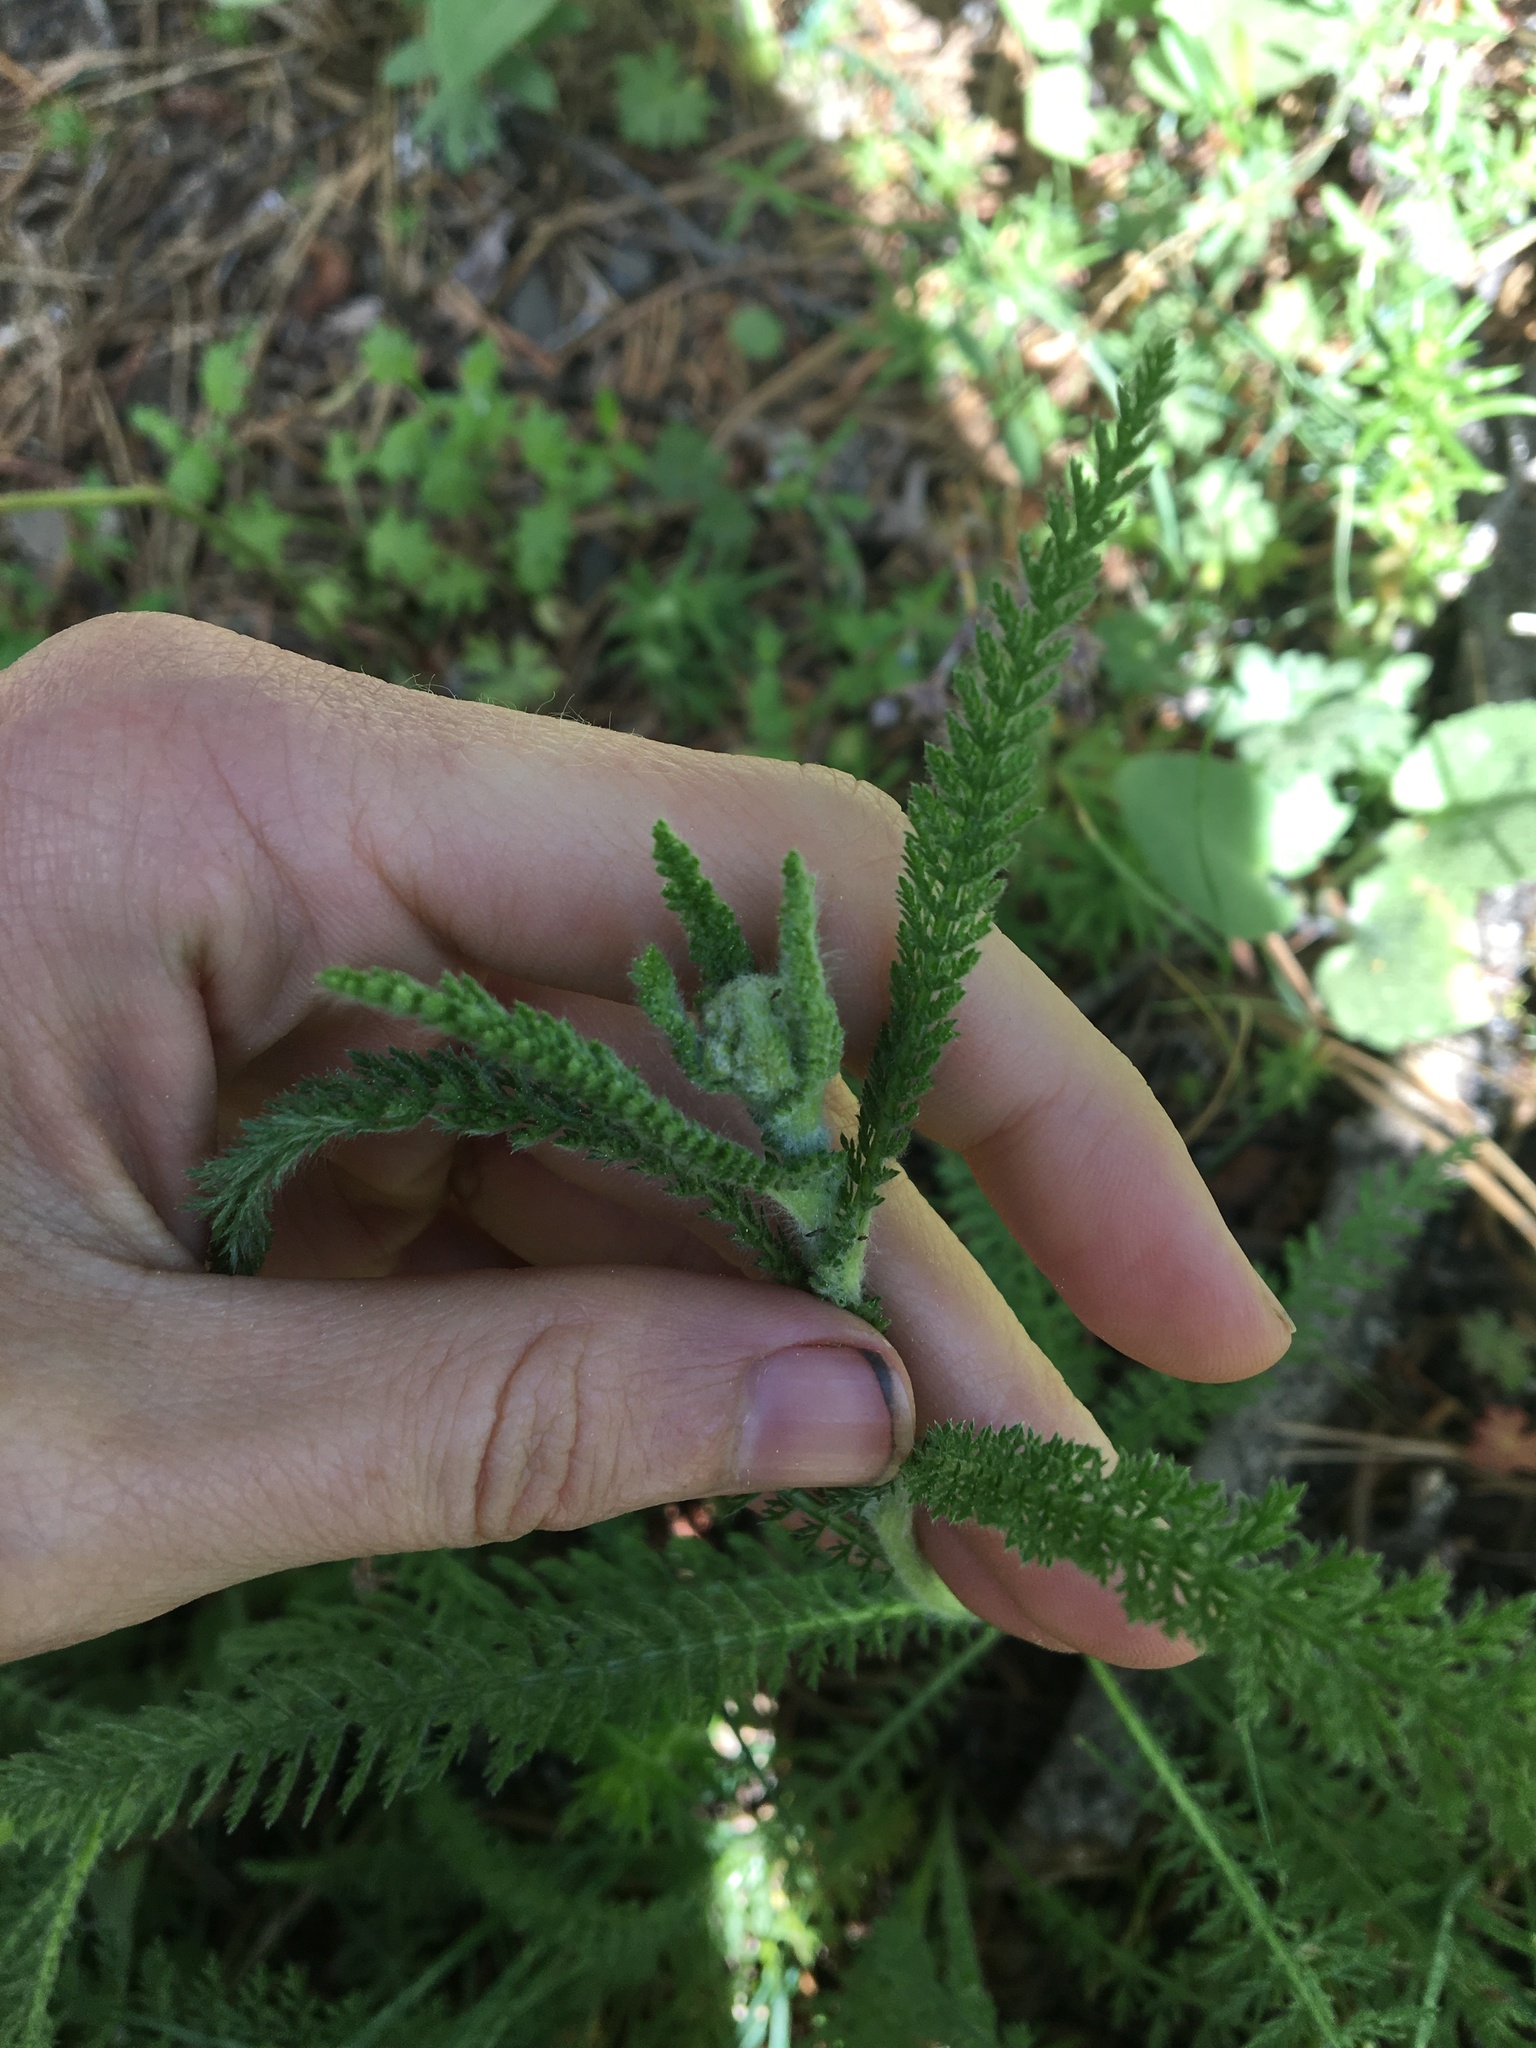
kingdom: Plantae
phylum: Tracheophyta
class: Magnoliopsida
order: Asterales
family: Asteraceae
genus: Achillea
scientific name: Achillea millefolium
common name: Yarrow
